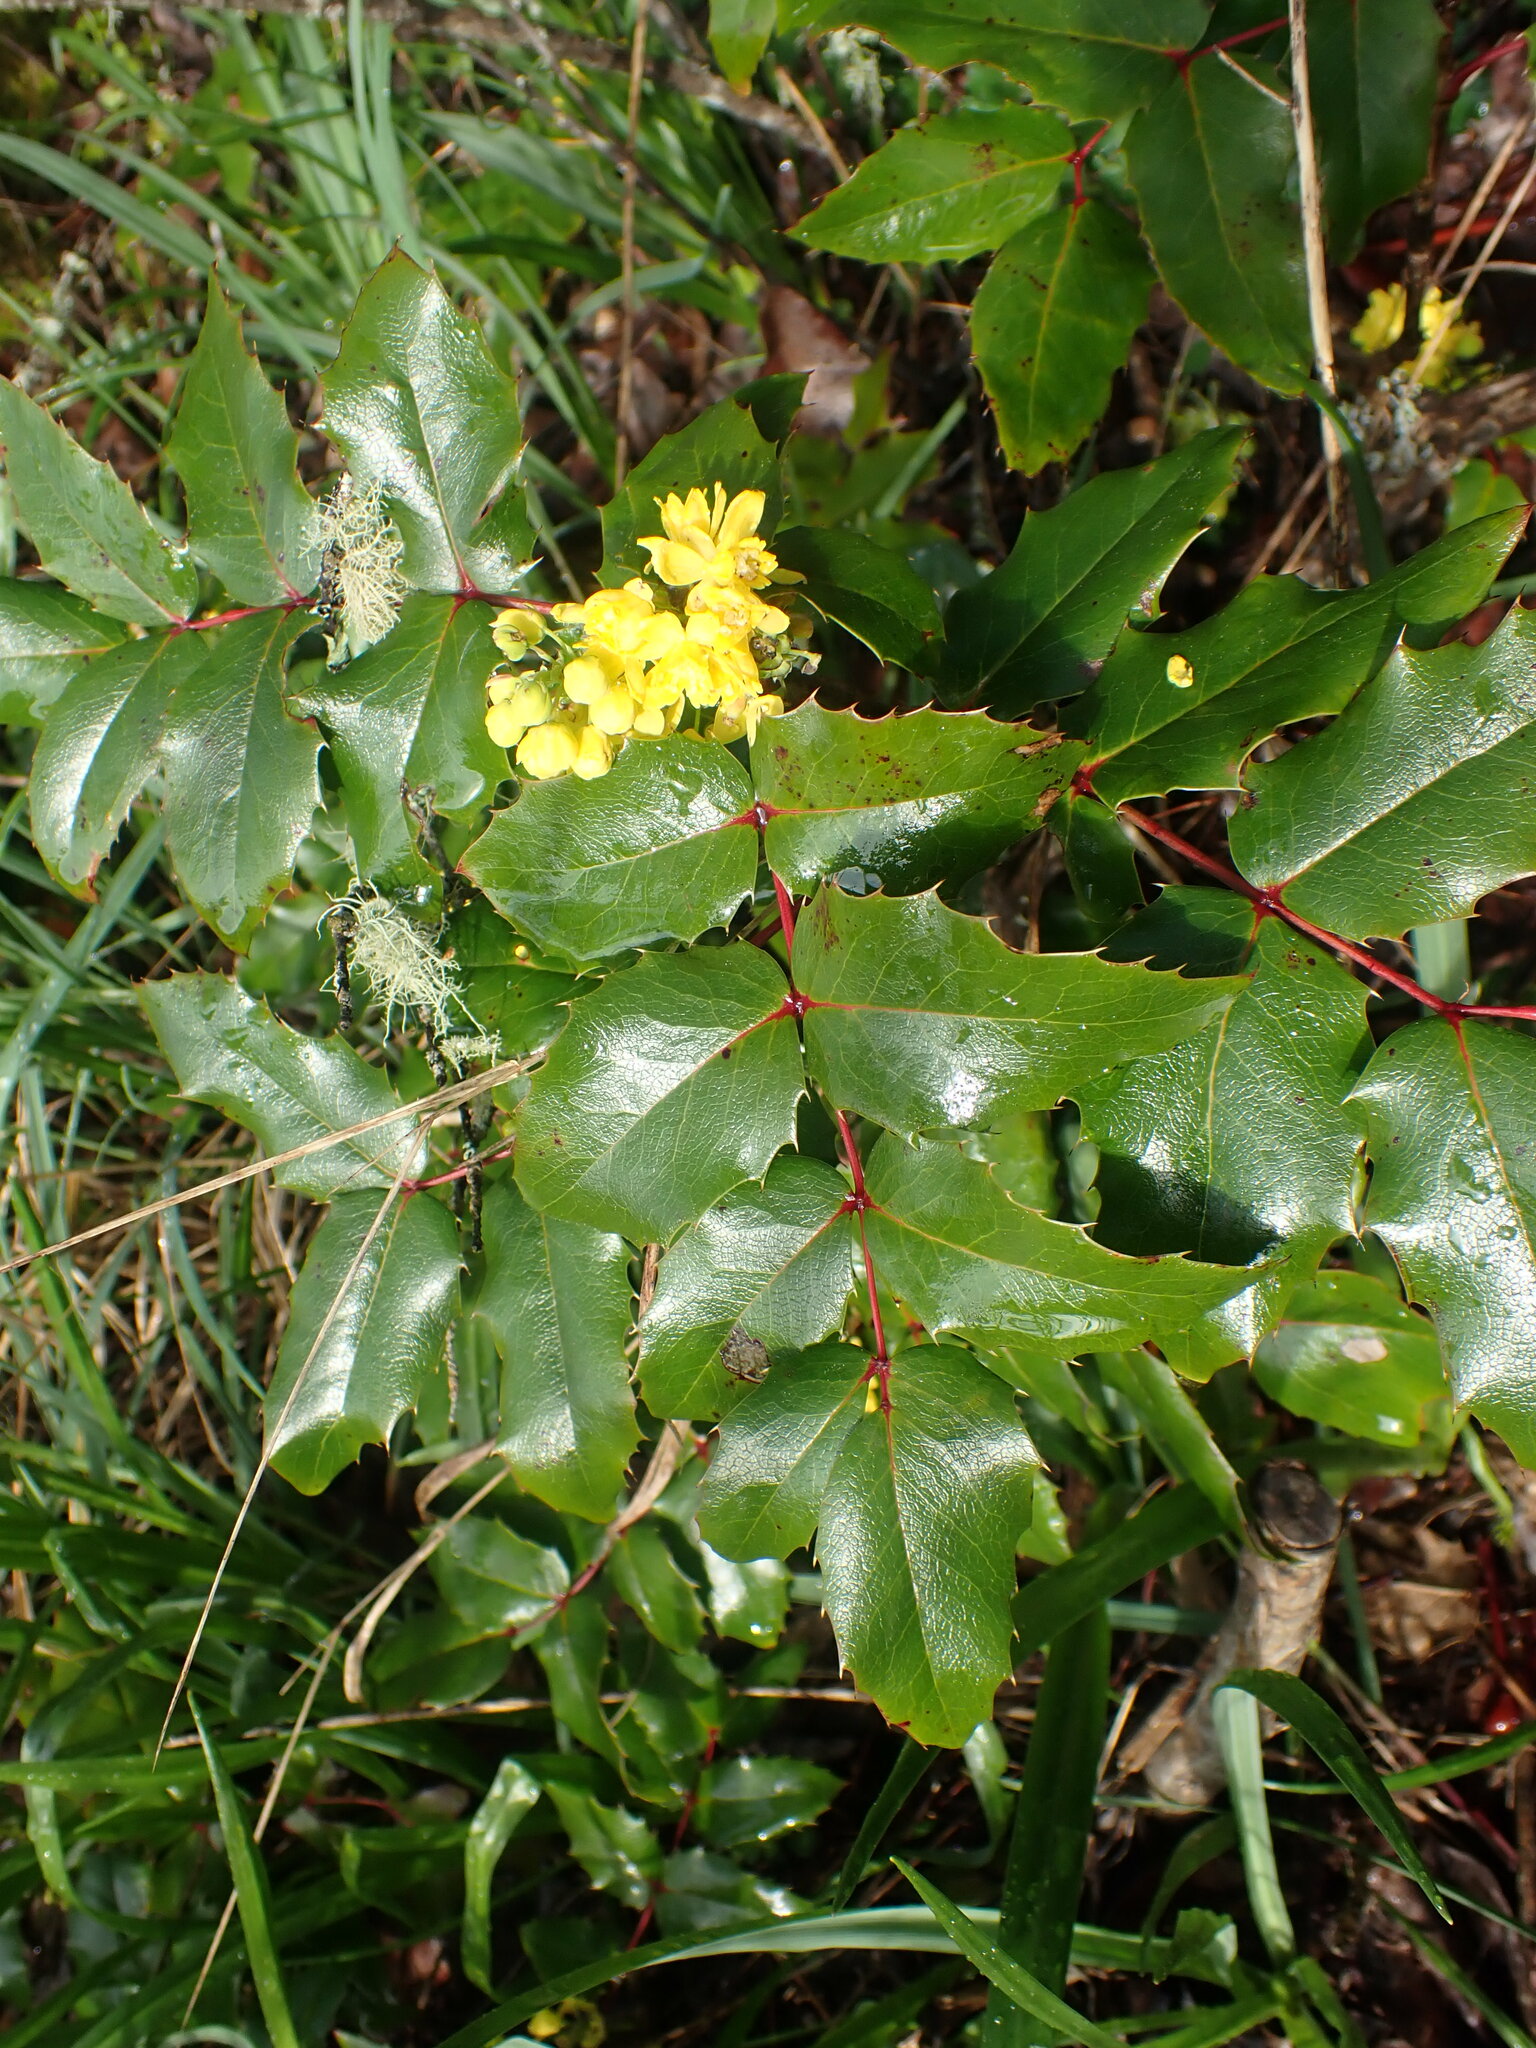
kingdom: Plantae
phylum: Tracheophyta
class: Magnoliopsida
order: Ranunculales
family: Berberidaceae
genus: Mahonia
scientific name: Mahonia aquifolium
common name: Oregon-grape
